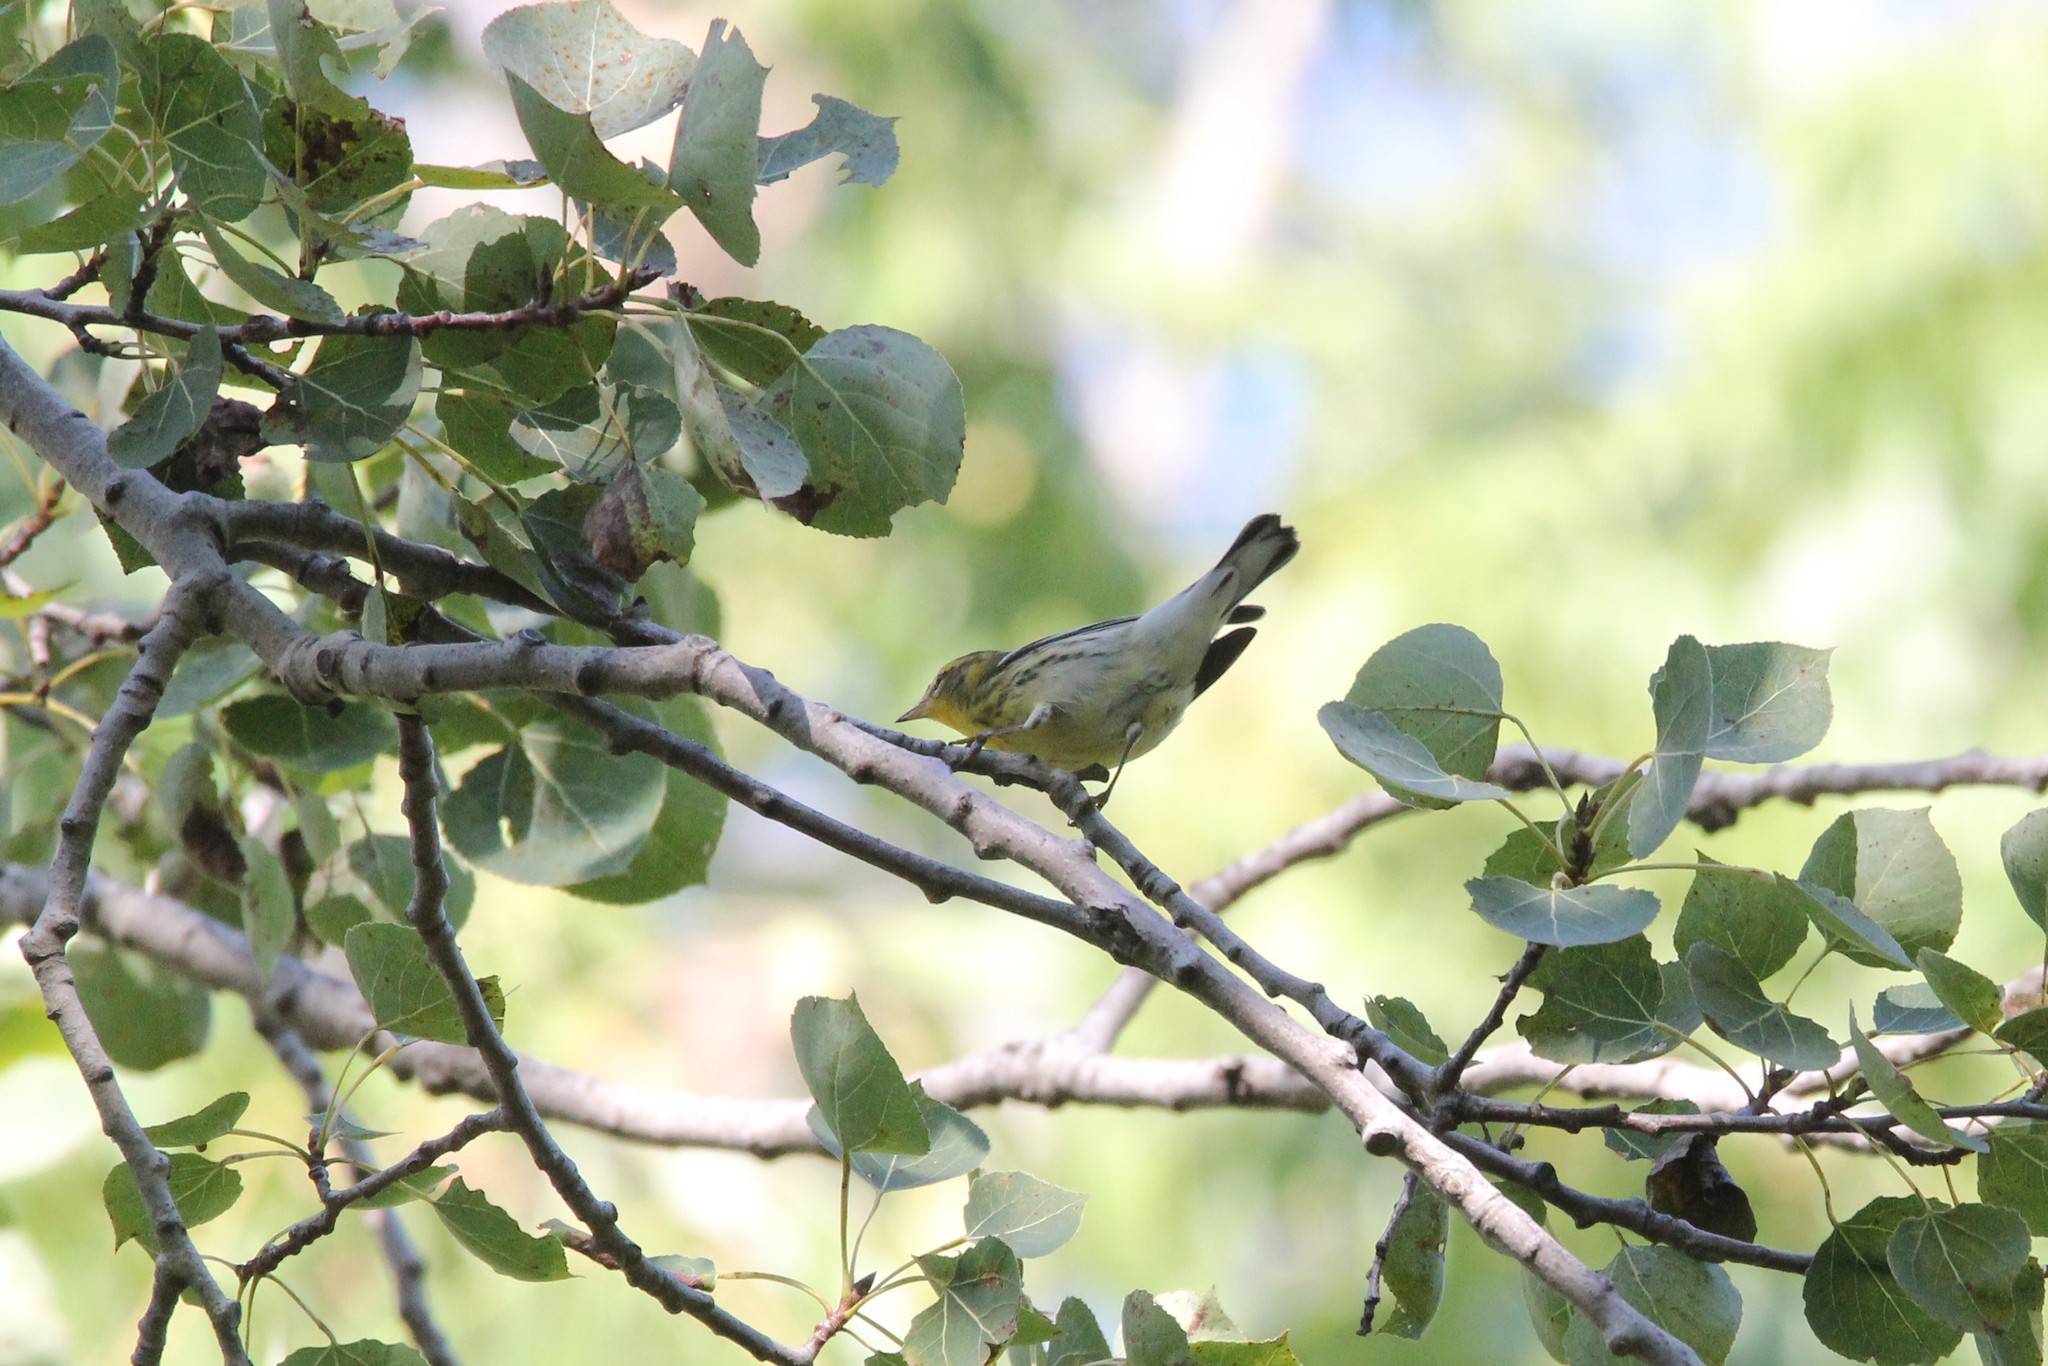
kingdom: Animalia
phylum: Chordata
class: Aves
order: Passeriformes
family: Parulidae
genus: Setophaga
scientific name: Setophaga fusca
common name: Blackburnian warbler
